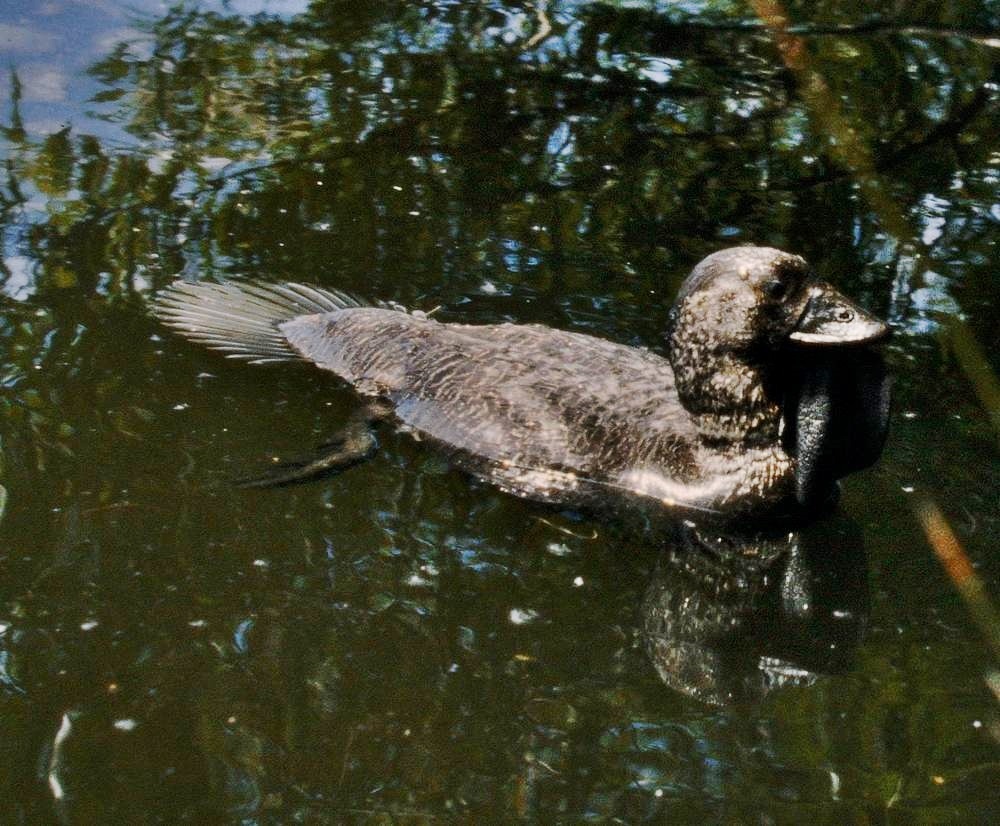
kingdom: Animalia
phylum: Chordata
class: Aves
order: Anseriformes
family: Anatidae
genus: Biziura
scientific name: Biziura lobata
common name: Musk duck
